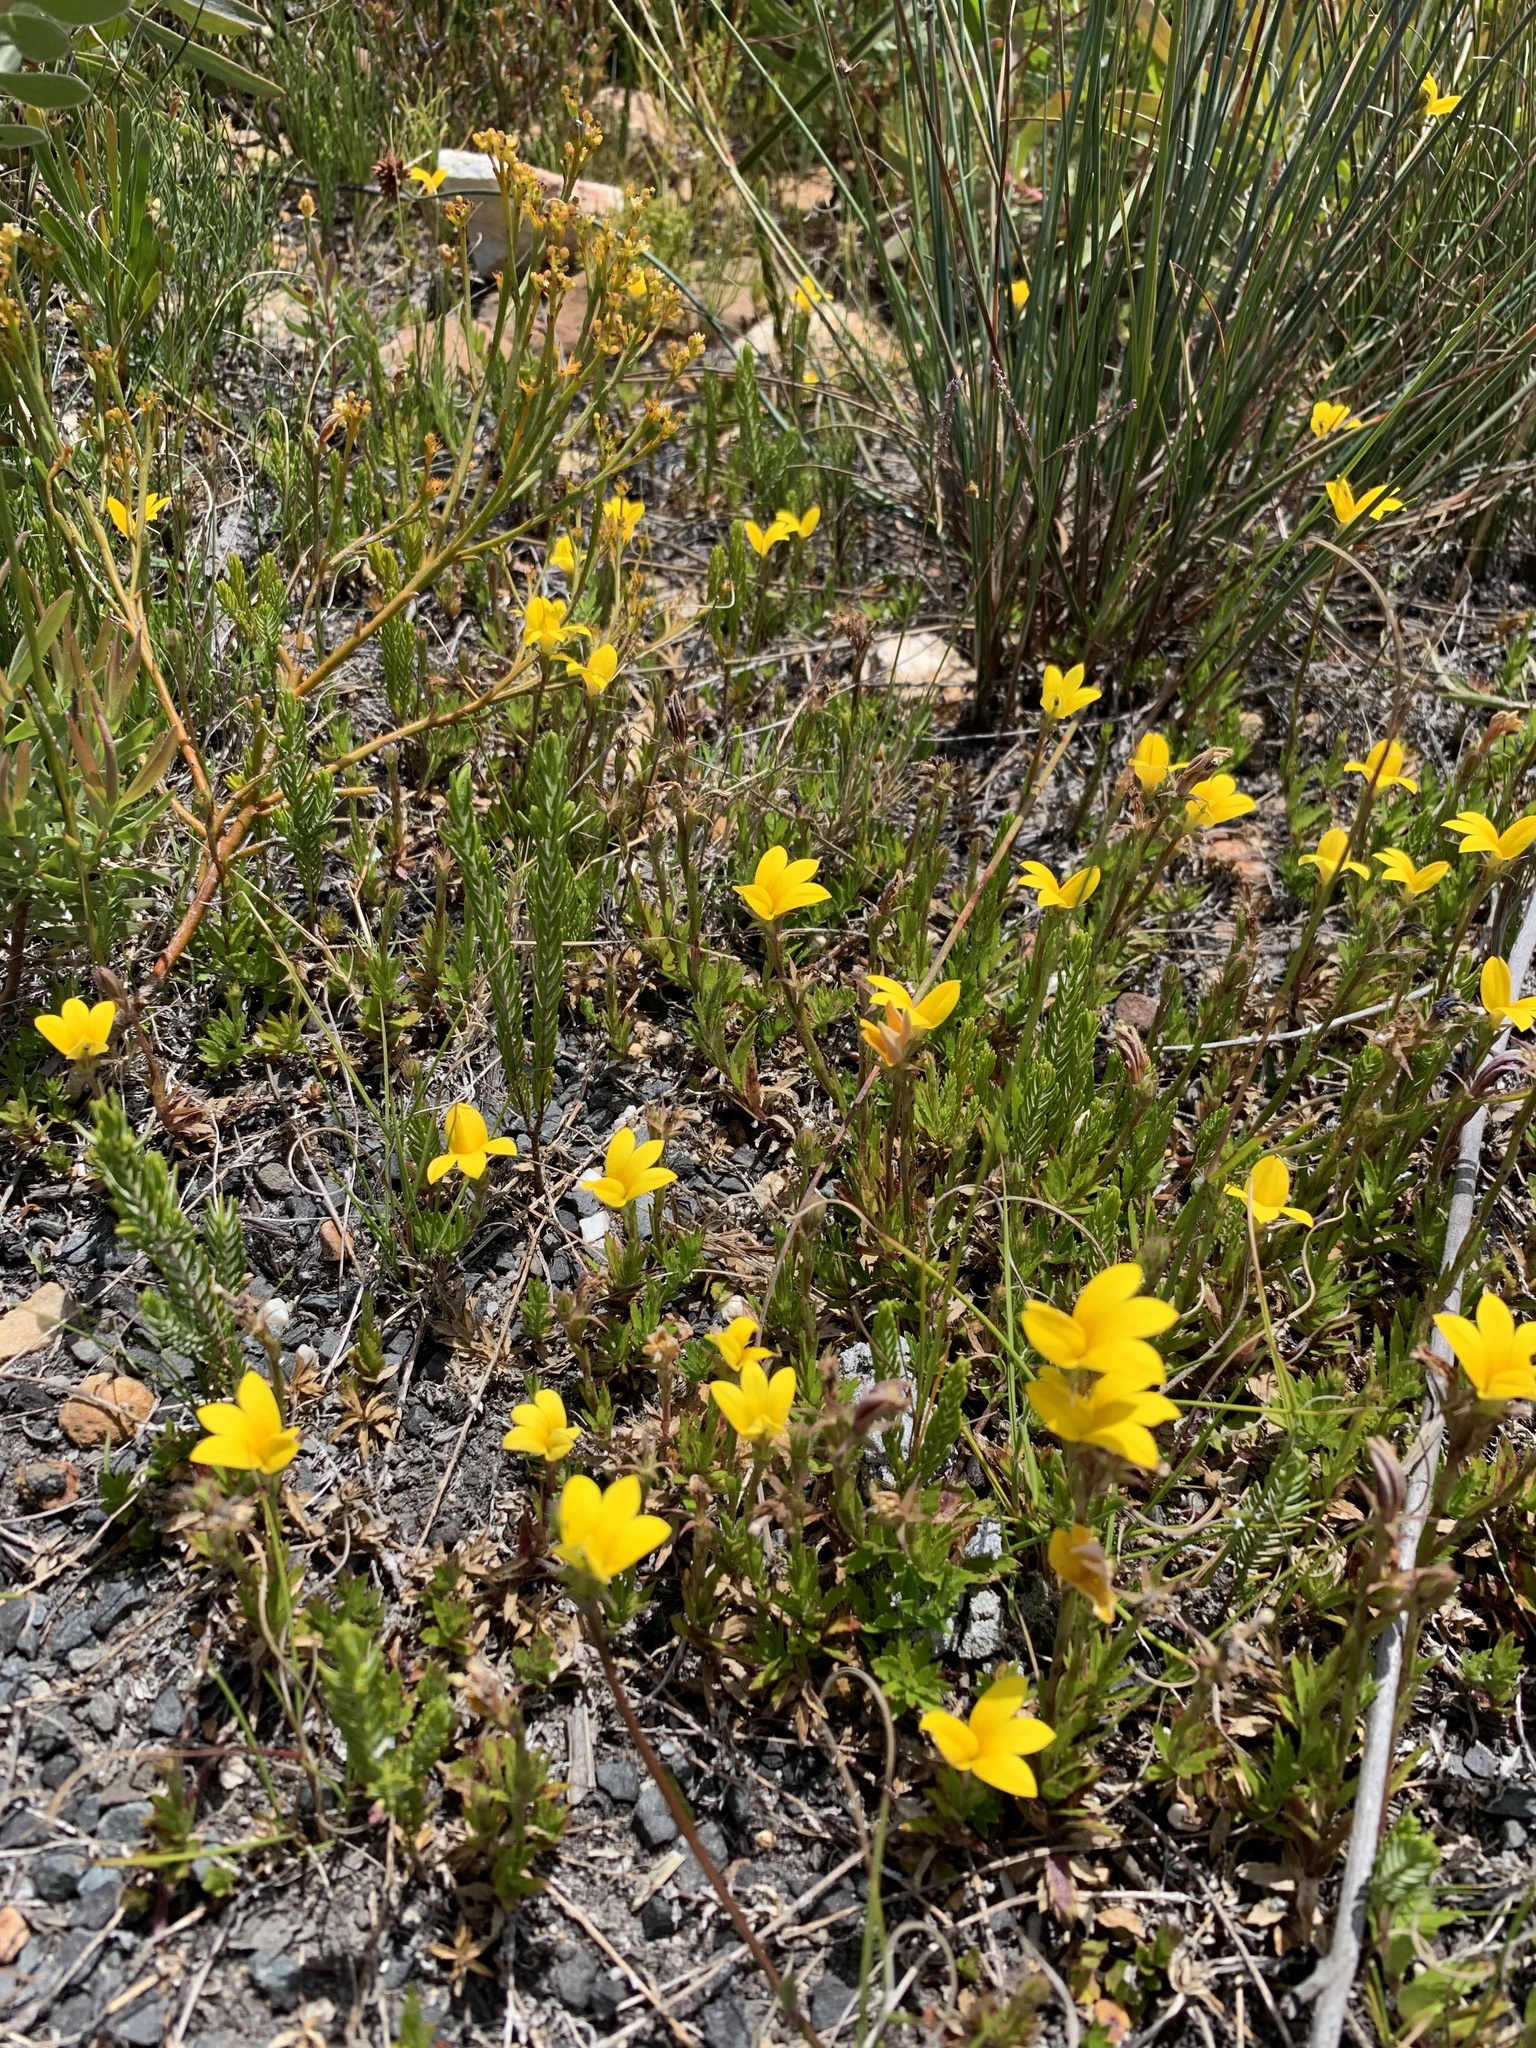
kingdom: Plantae
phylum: Tracheophyta
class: Magnoliopsida
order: Asterales
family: Campanulaceae
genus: Monopsis
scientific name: Monopsis lutea
